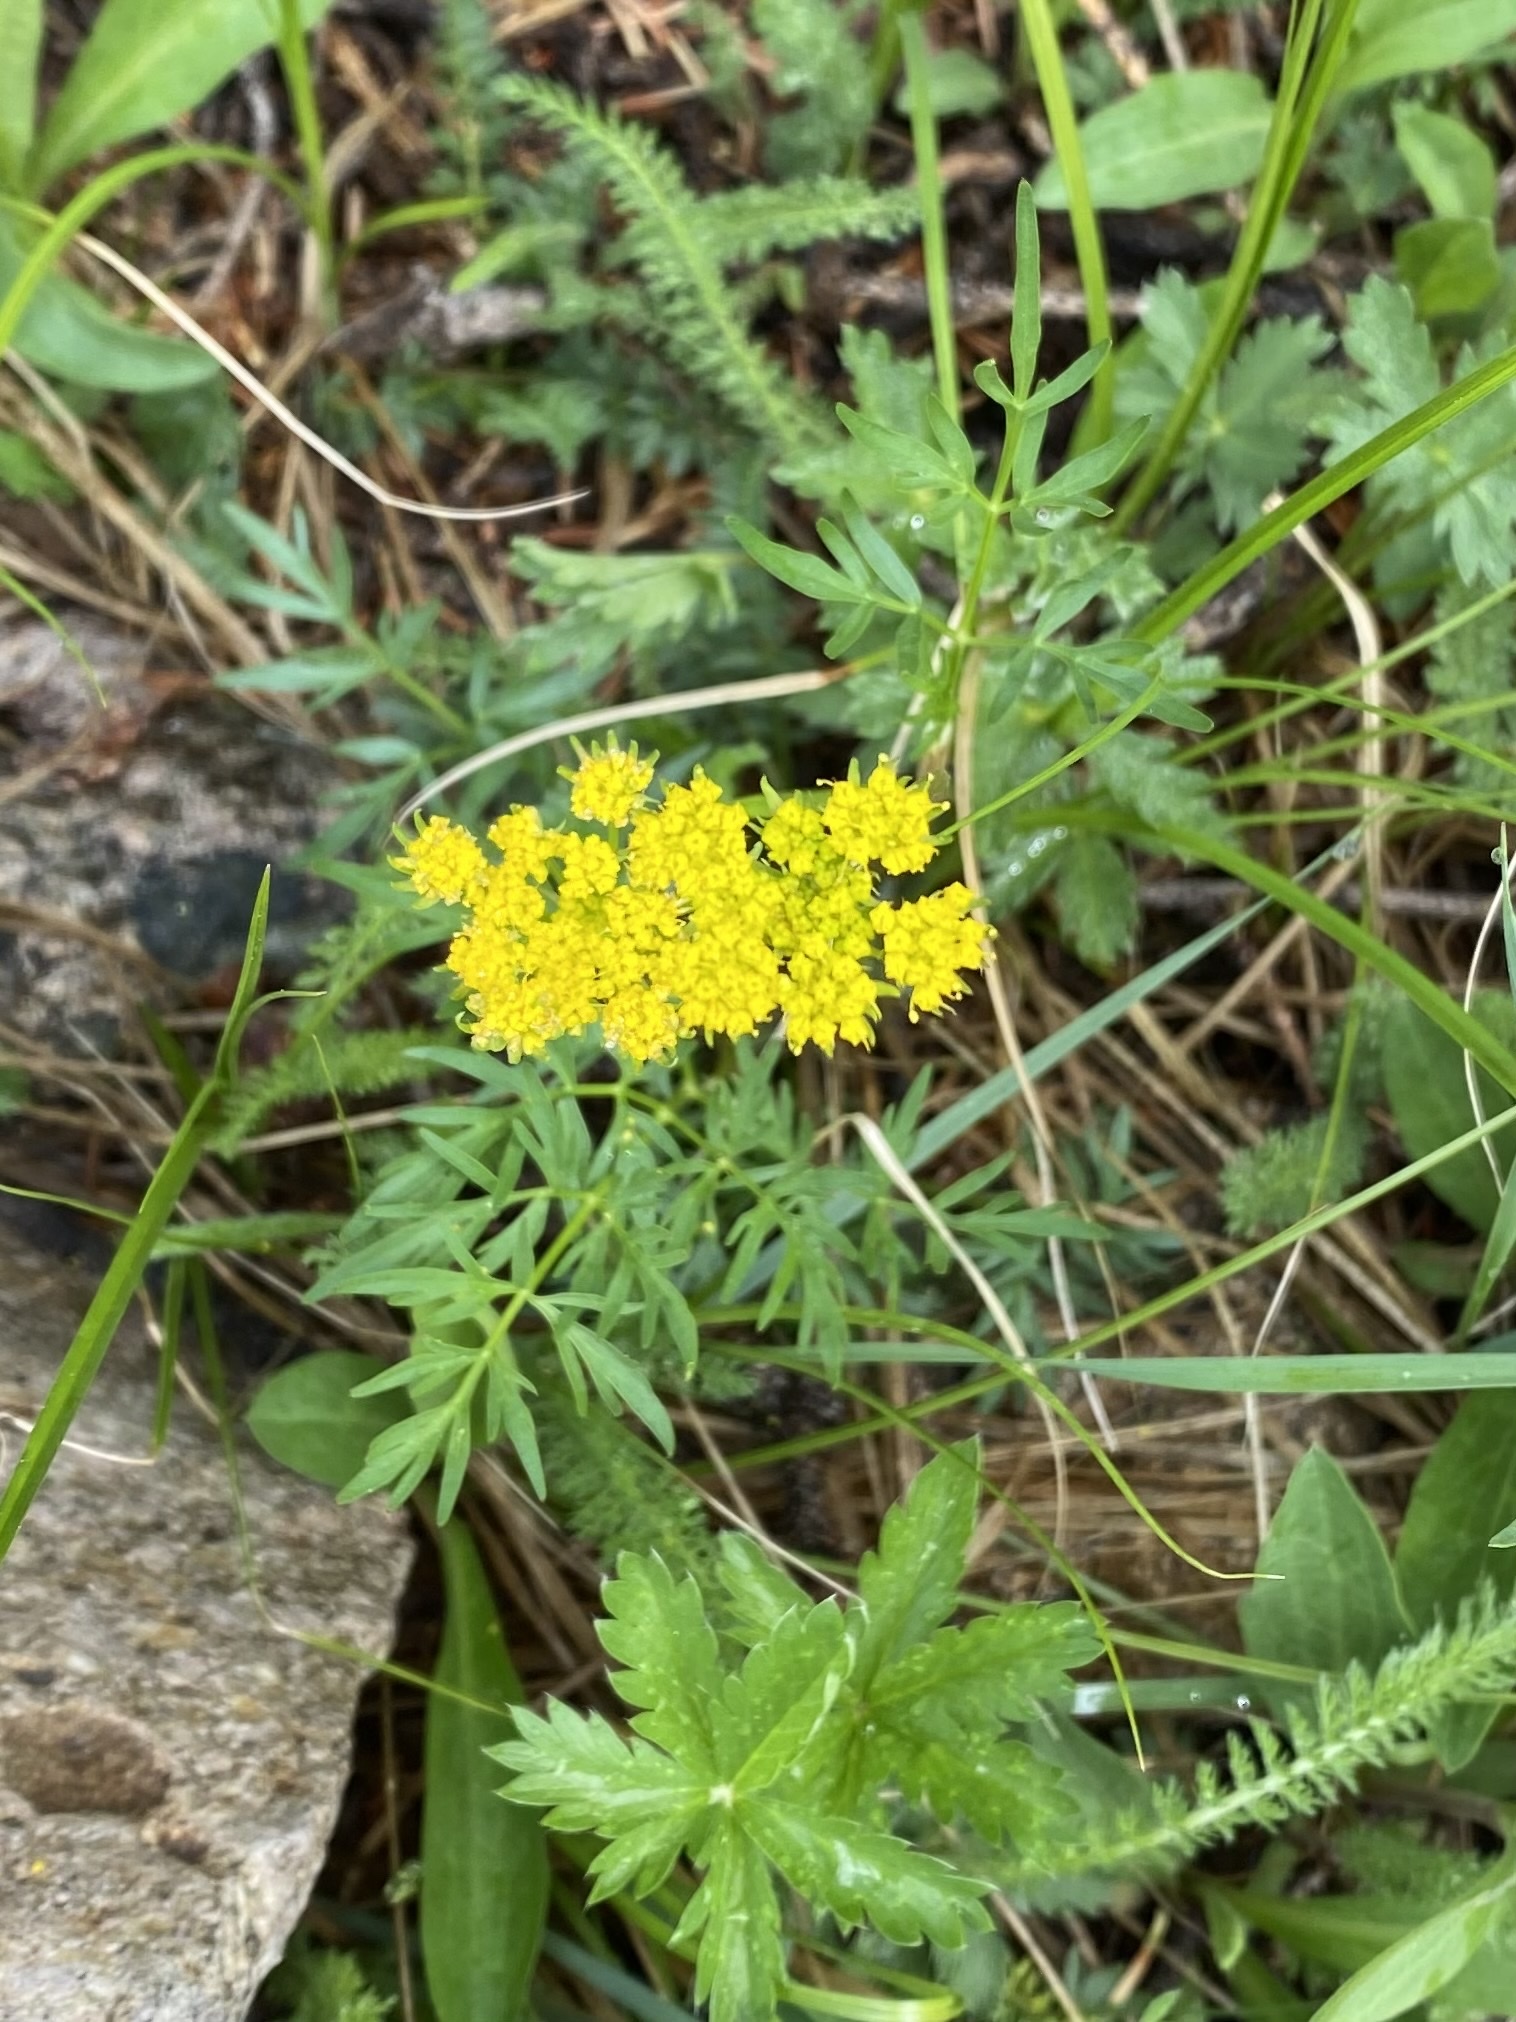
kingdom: Plantae
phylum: Tracheophyta
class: Magnoliopsida
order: Apiales
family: Apiaceae
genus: Cymopterus
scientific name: Cymopterus lemmonii
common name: Lemmon's spring-parsley
